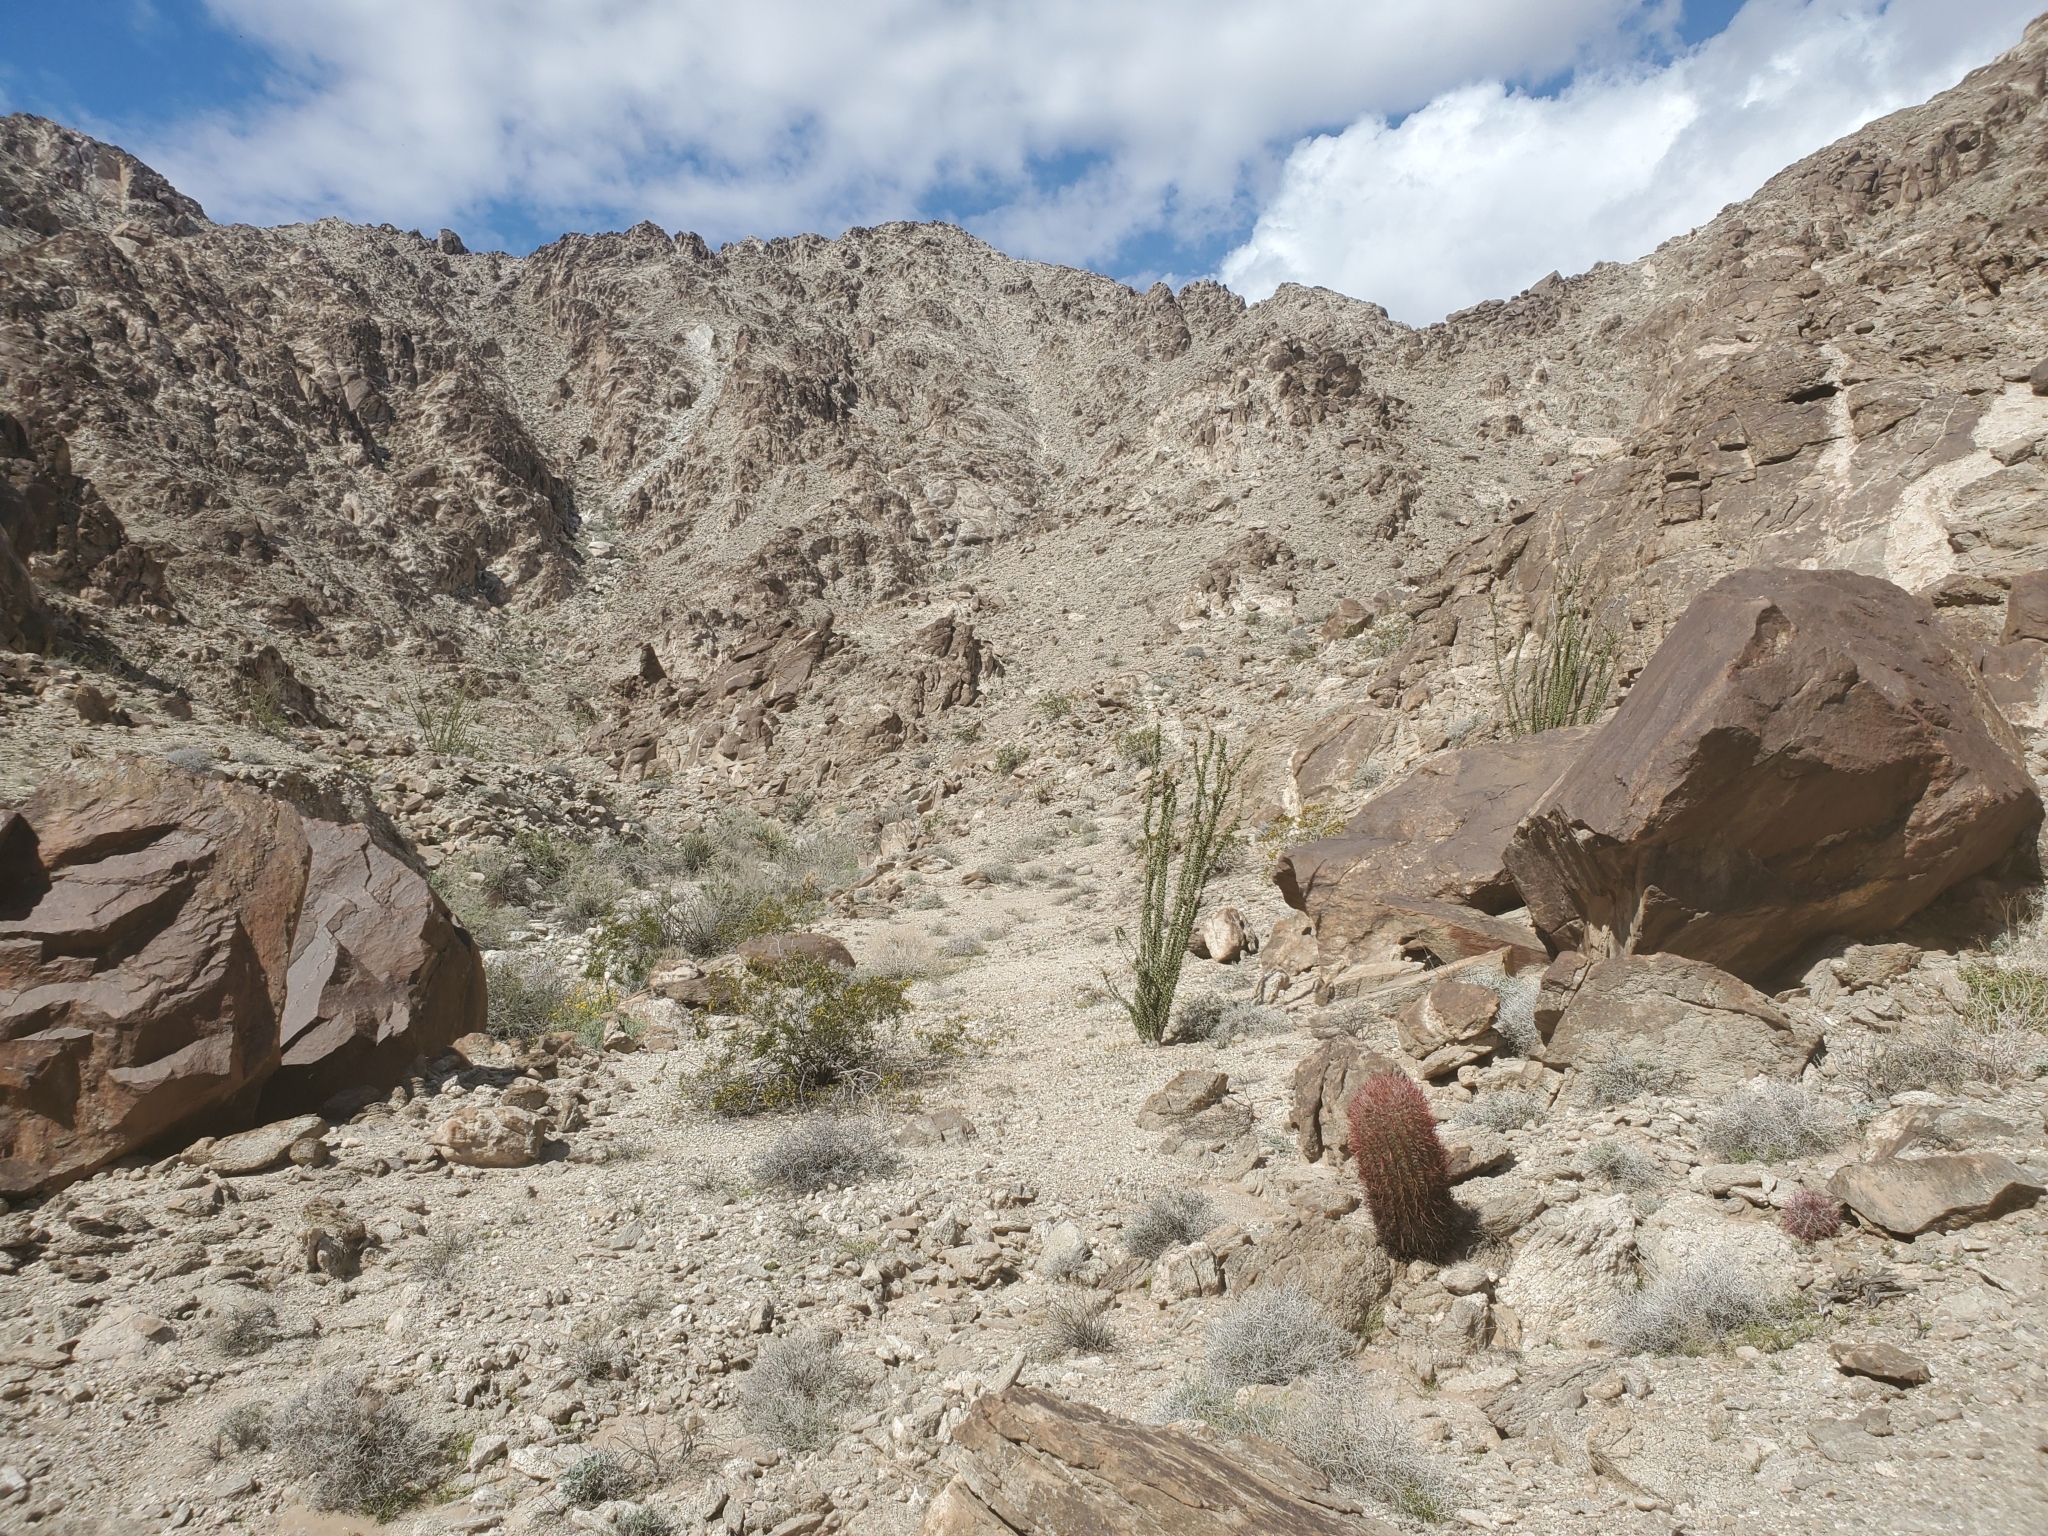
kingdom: Plantae
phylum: Tracheophyta
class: Magnoliopsida
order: Caryophyllales
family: Cactaceae
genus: Ferocactus
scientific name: Ferocactus cylindraceus
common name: California barrel cactus
